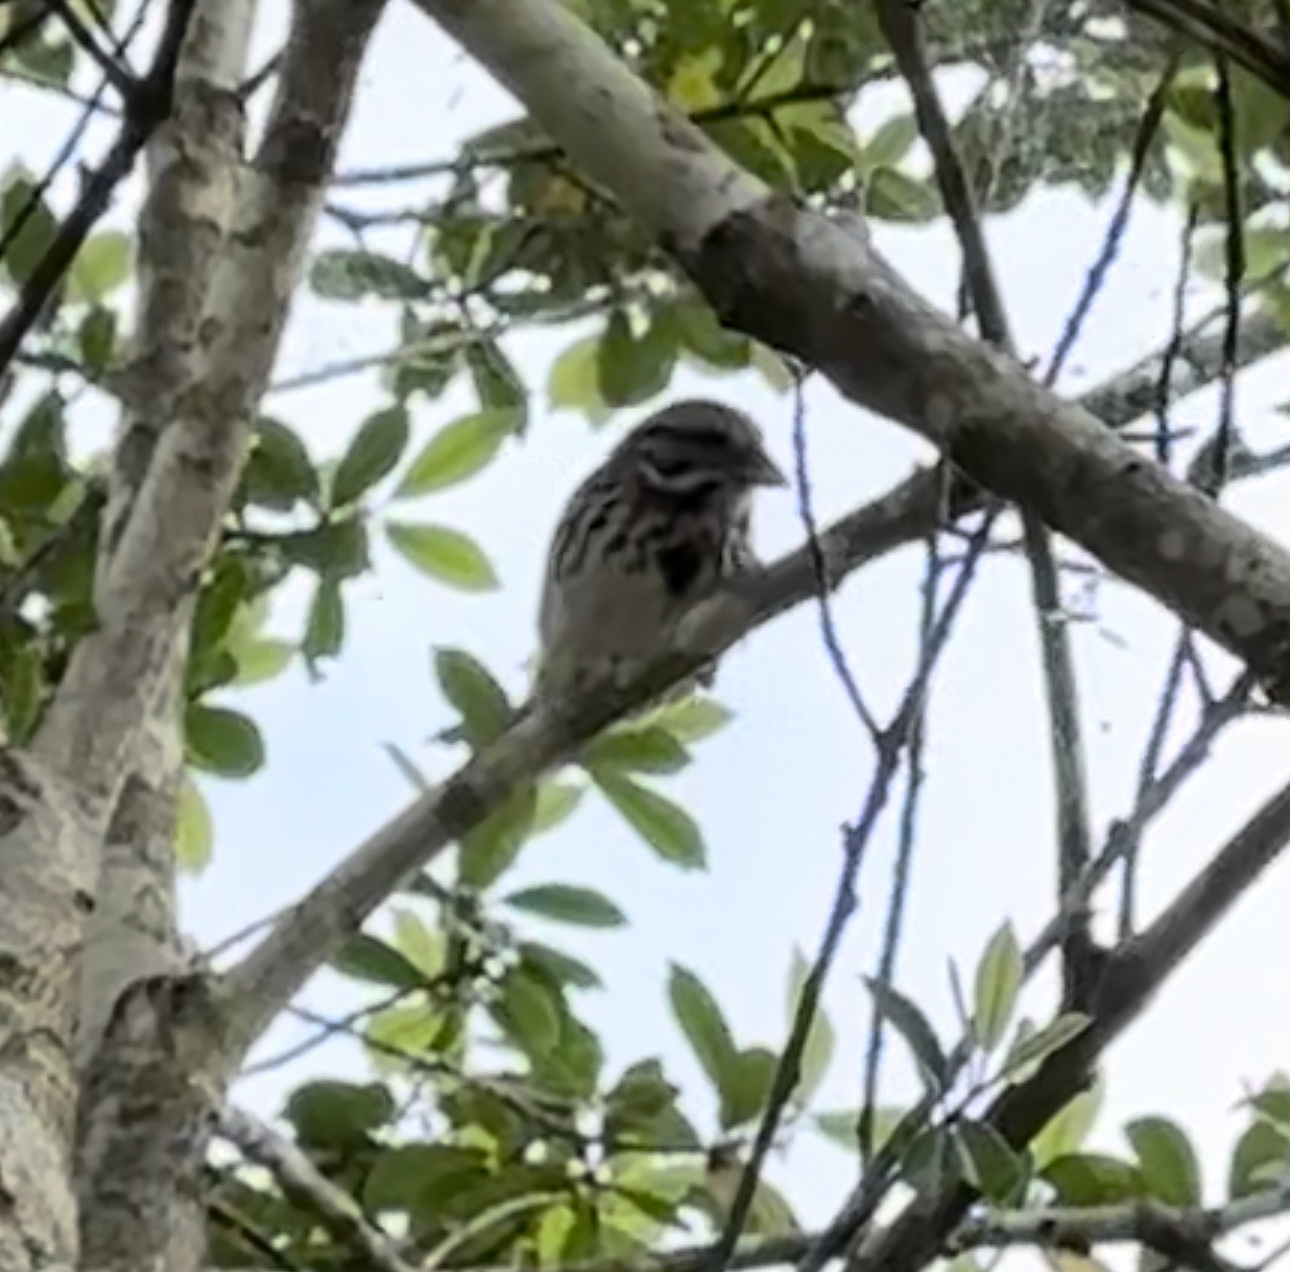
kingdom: Animalia
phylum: Chordata
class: Aves
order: Passeriformes
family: Passerellidae
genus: Melospiza
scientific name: Melospiza melodia
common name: Song sparrow
